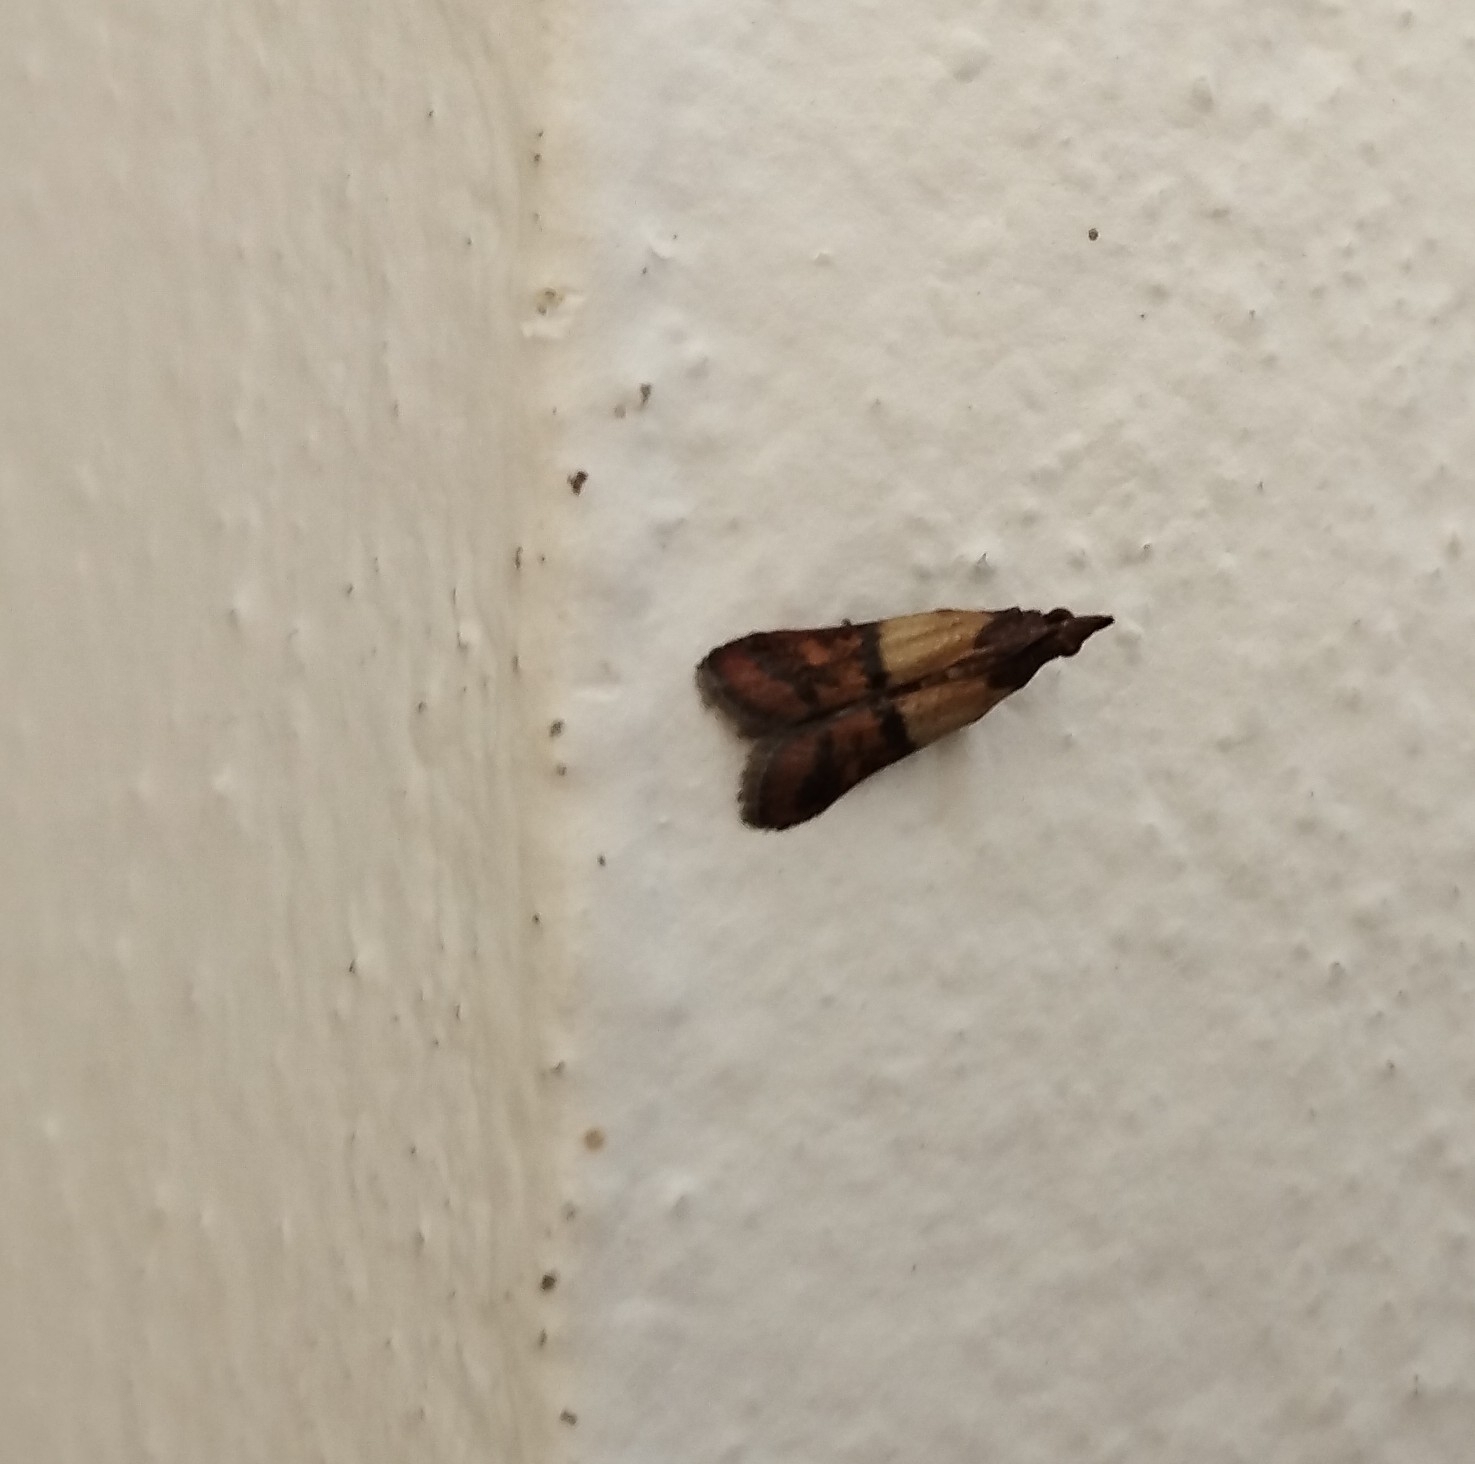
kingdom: Animalia
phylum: Arthropoda
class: Insecta
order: Lepidoptera
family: Pyralidae
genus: Plodia
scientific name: Plodia interpunctella
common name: Indian meal moth
